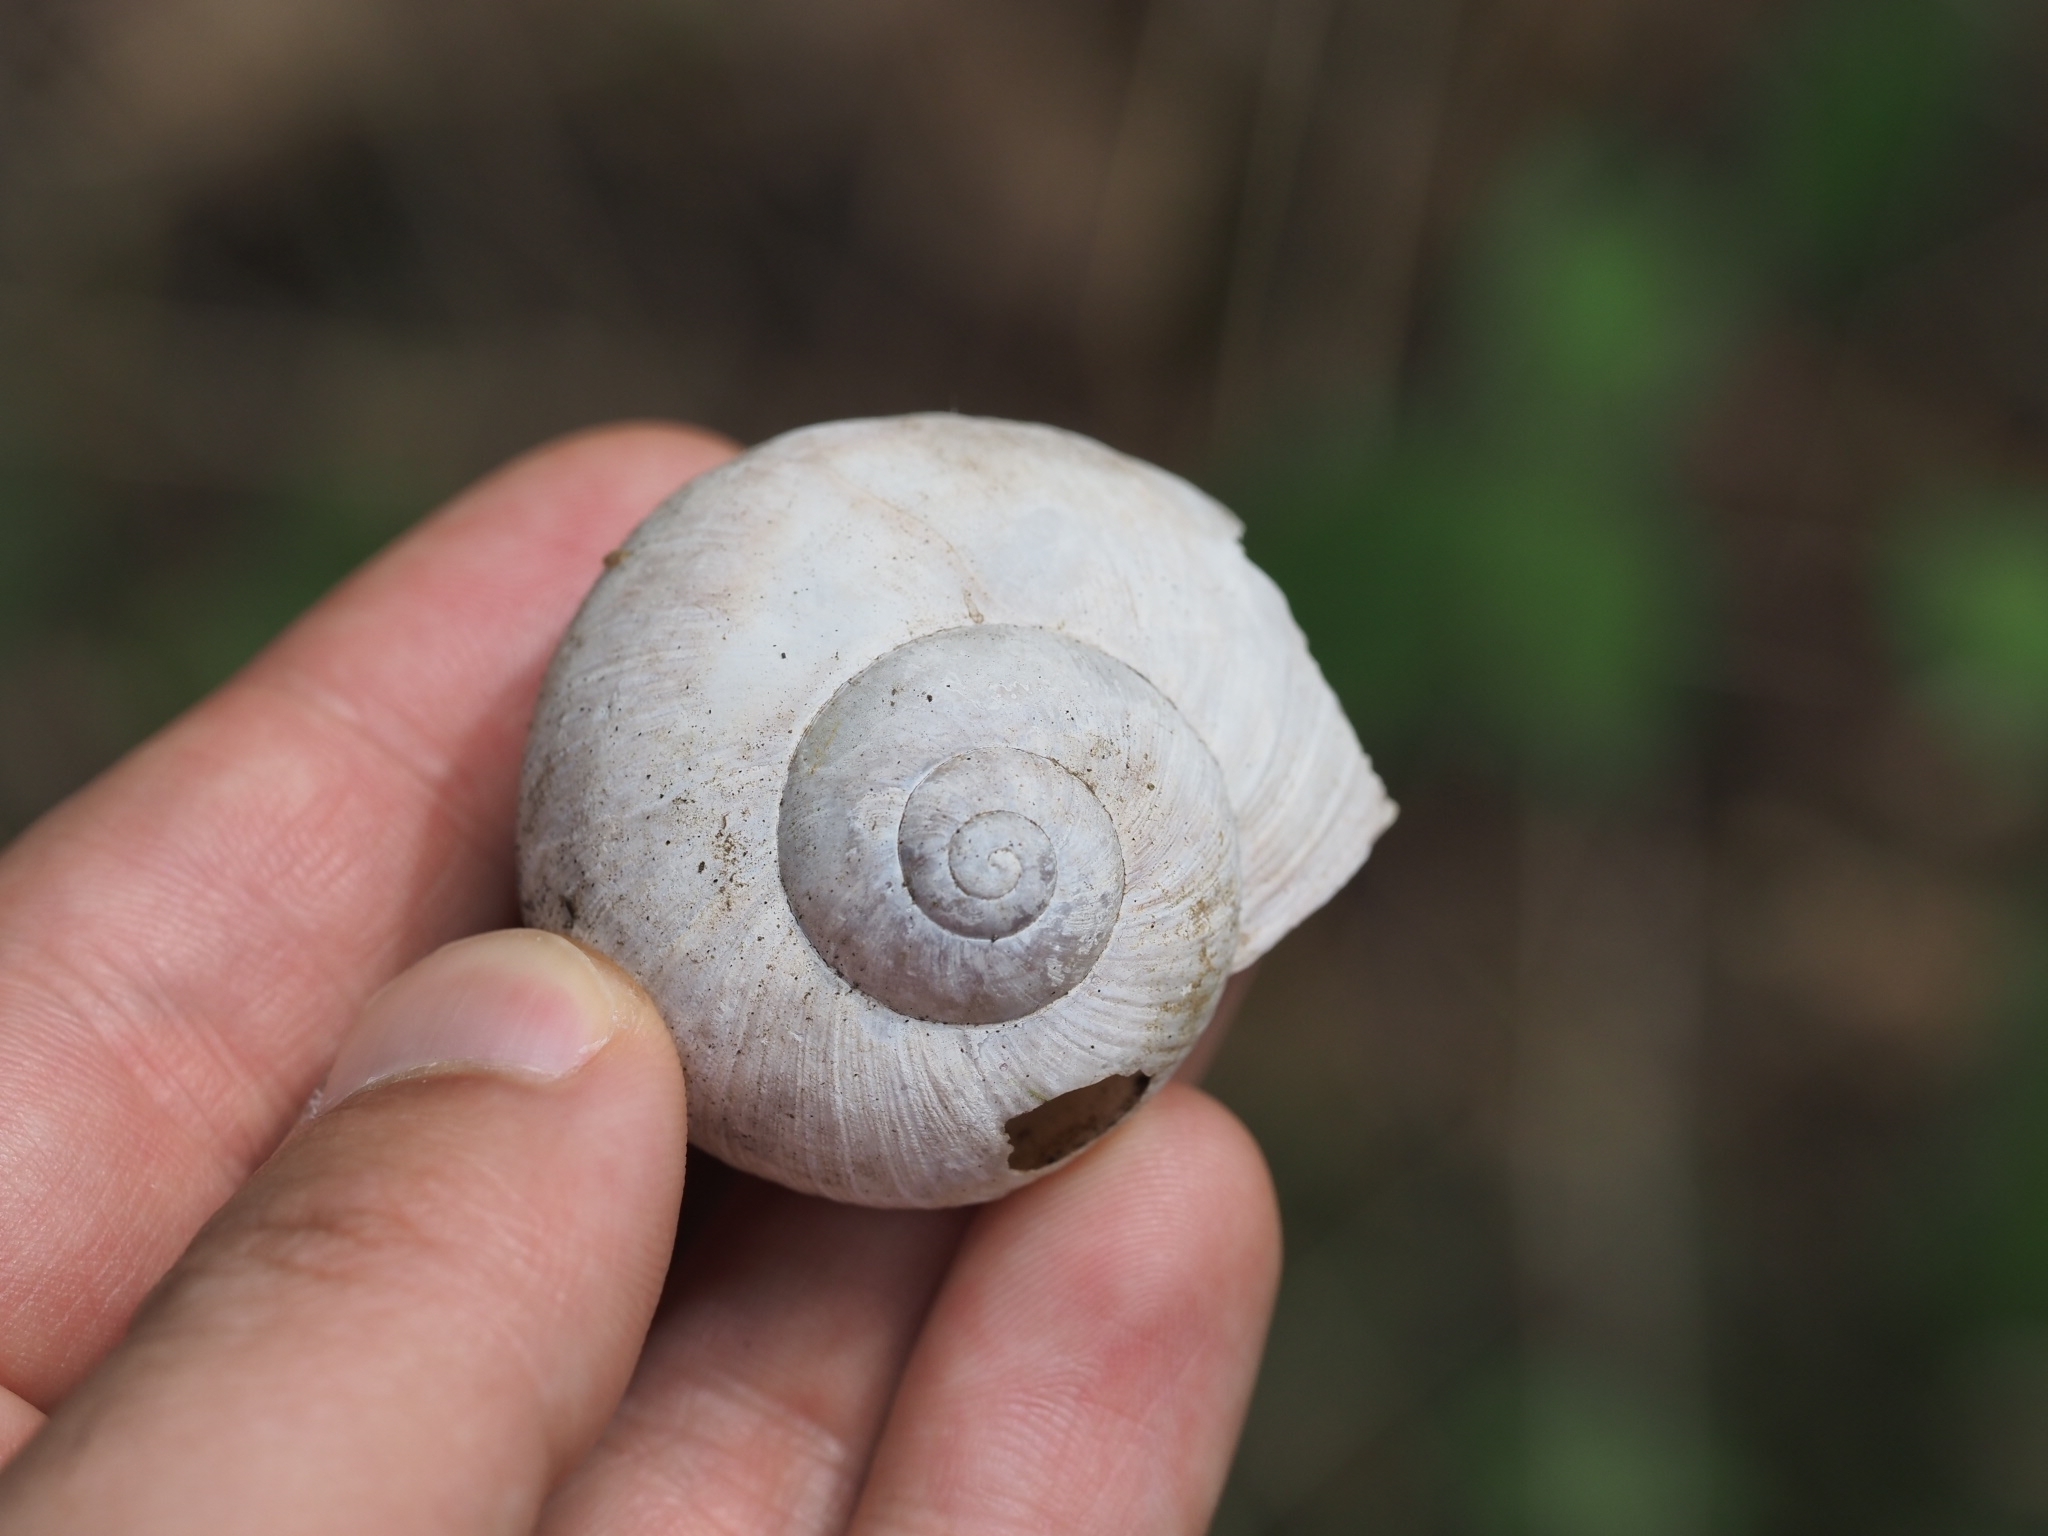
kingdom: Animalia
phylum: Mollusca
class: Gastropoda
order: Stylommatophora
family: Helicidae
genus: Helix
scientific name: Helix pomatia
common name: Roman snail
